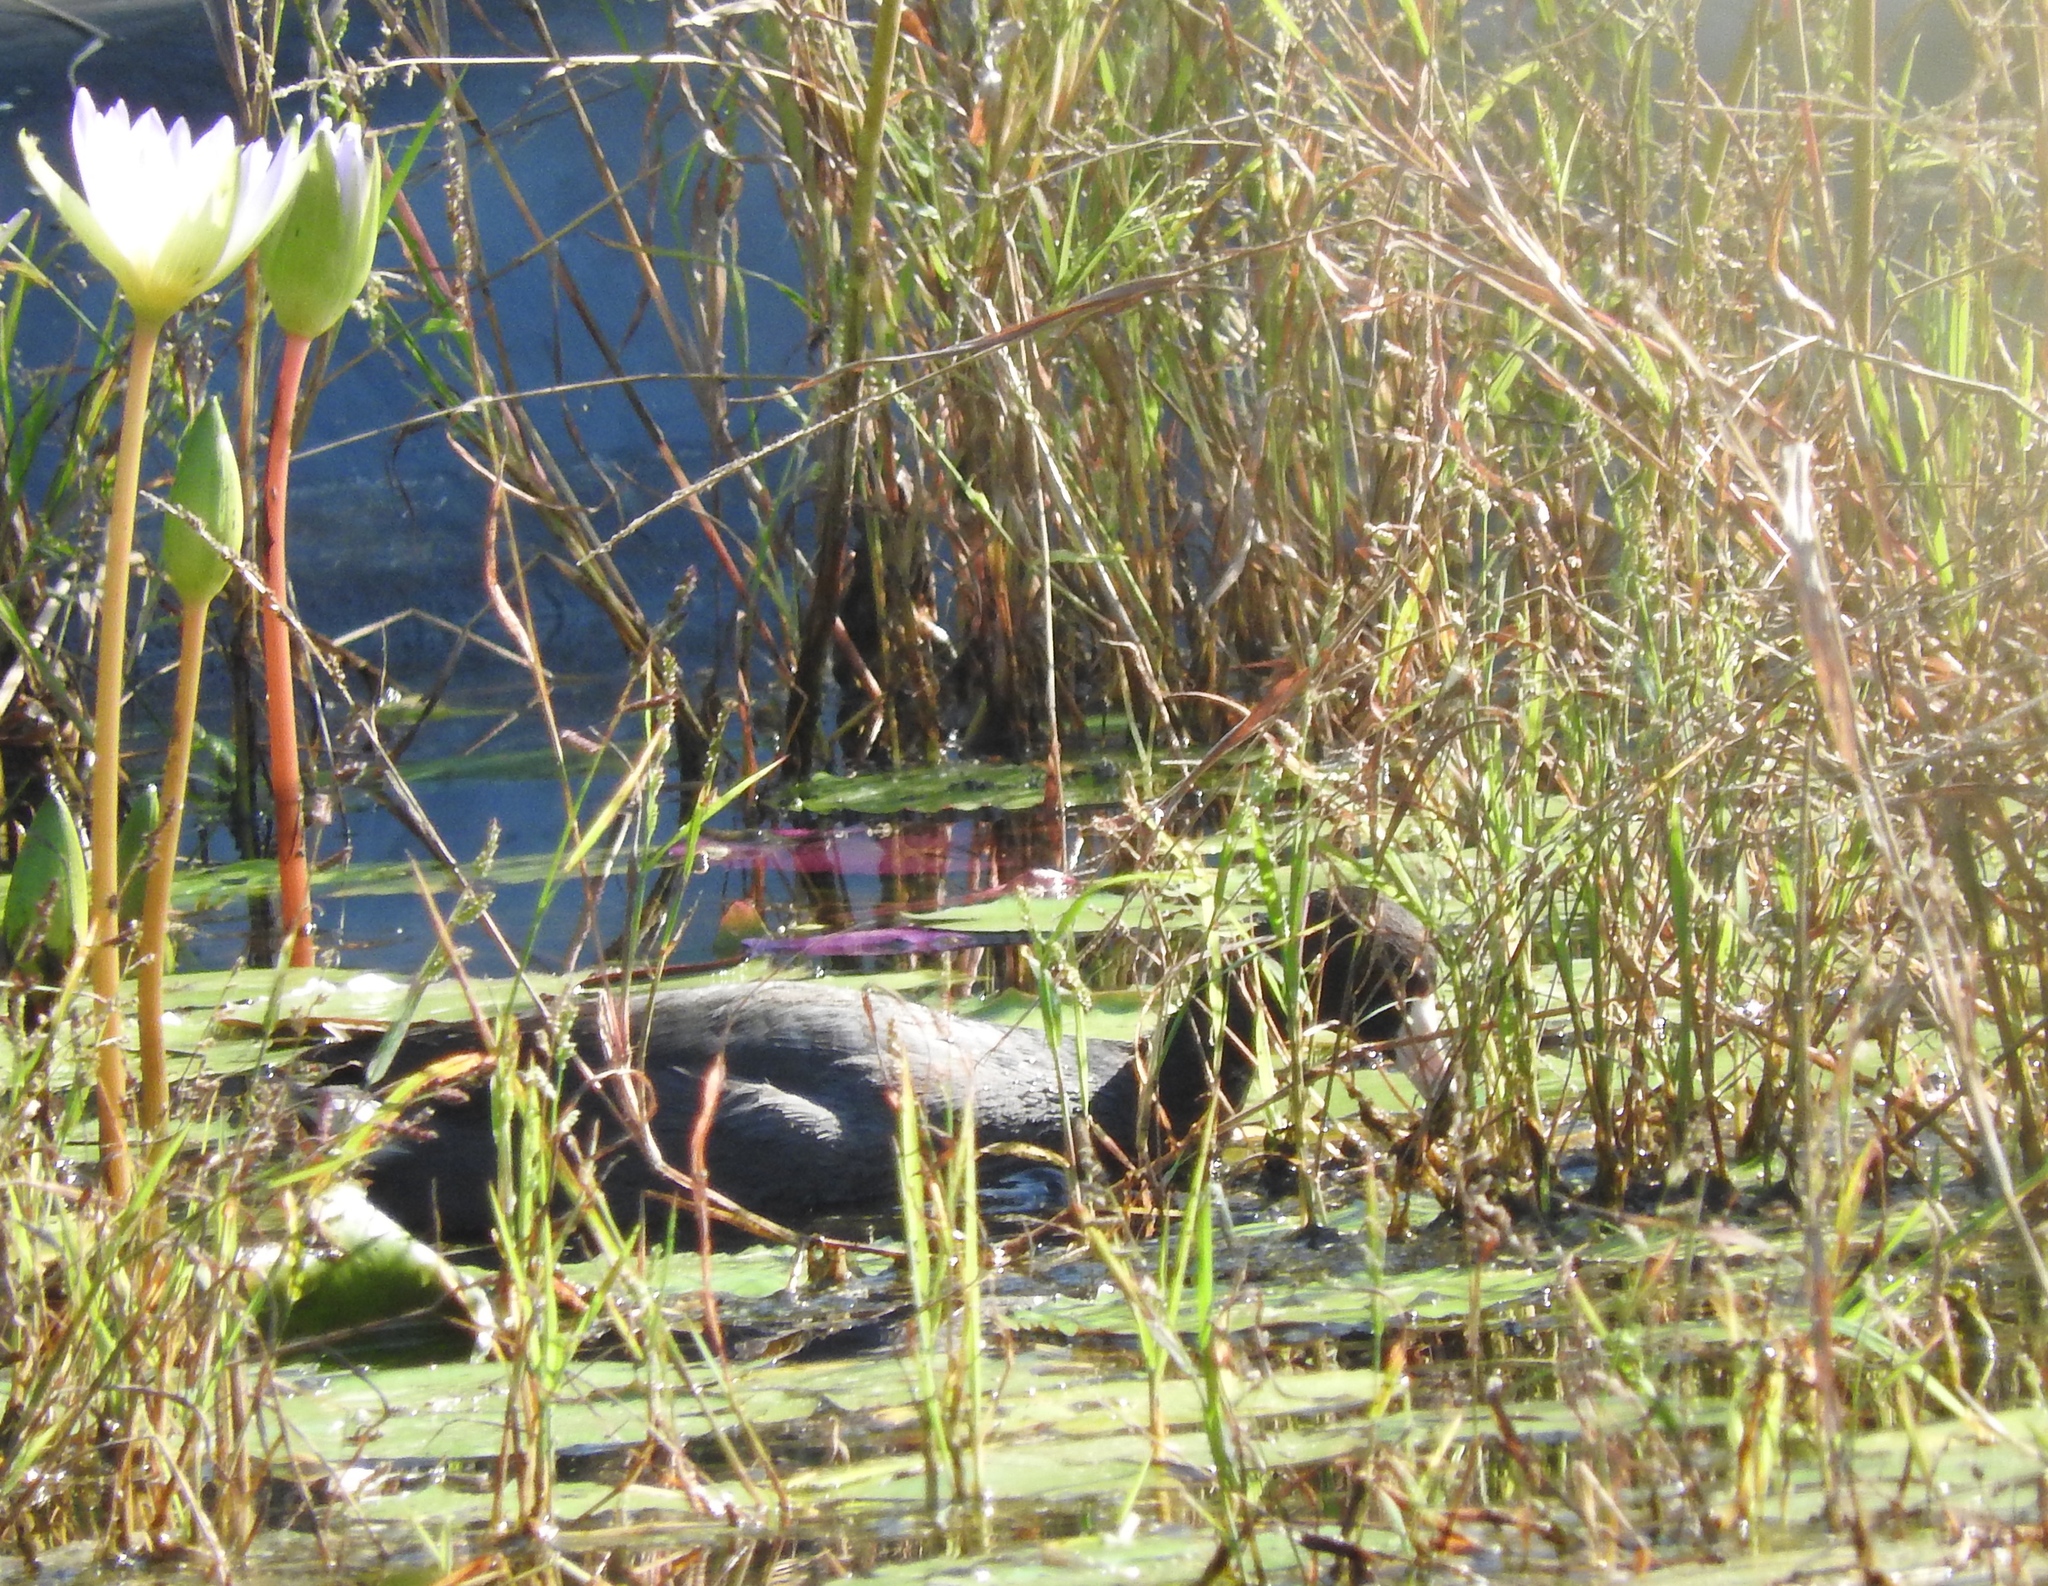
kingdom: Animalia
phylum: Chordata
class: Aves
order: Gruiformes
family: Rallidae
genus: Fulica
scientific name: Fulica americana
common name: American coot
